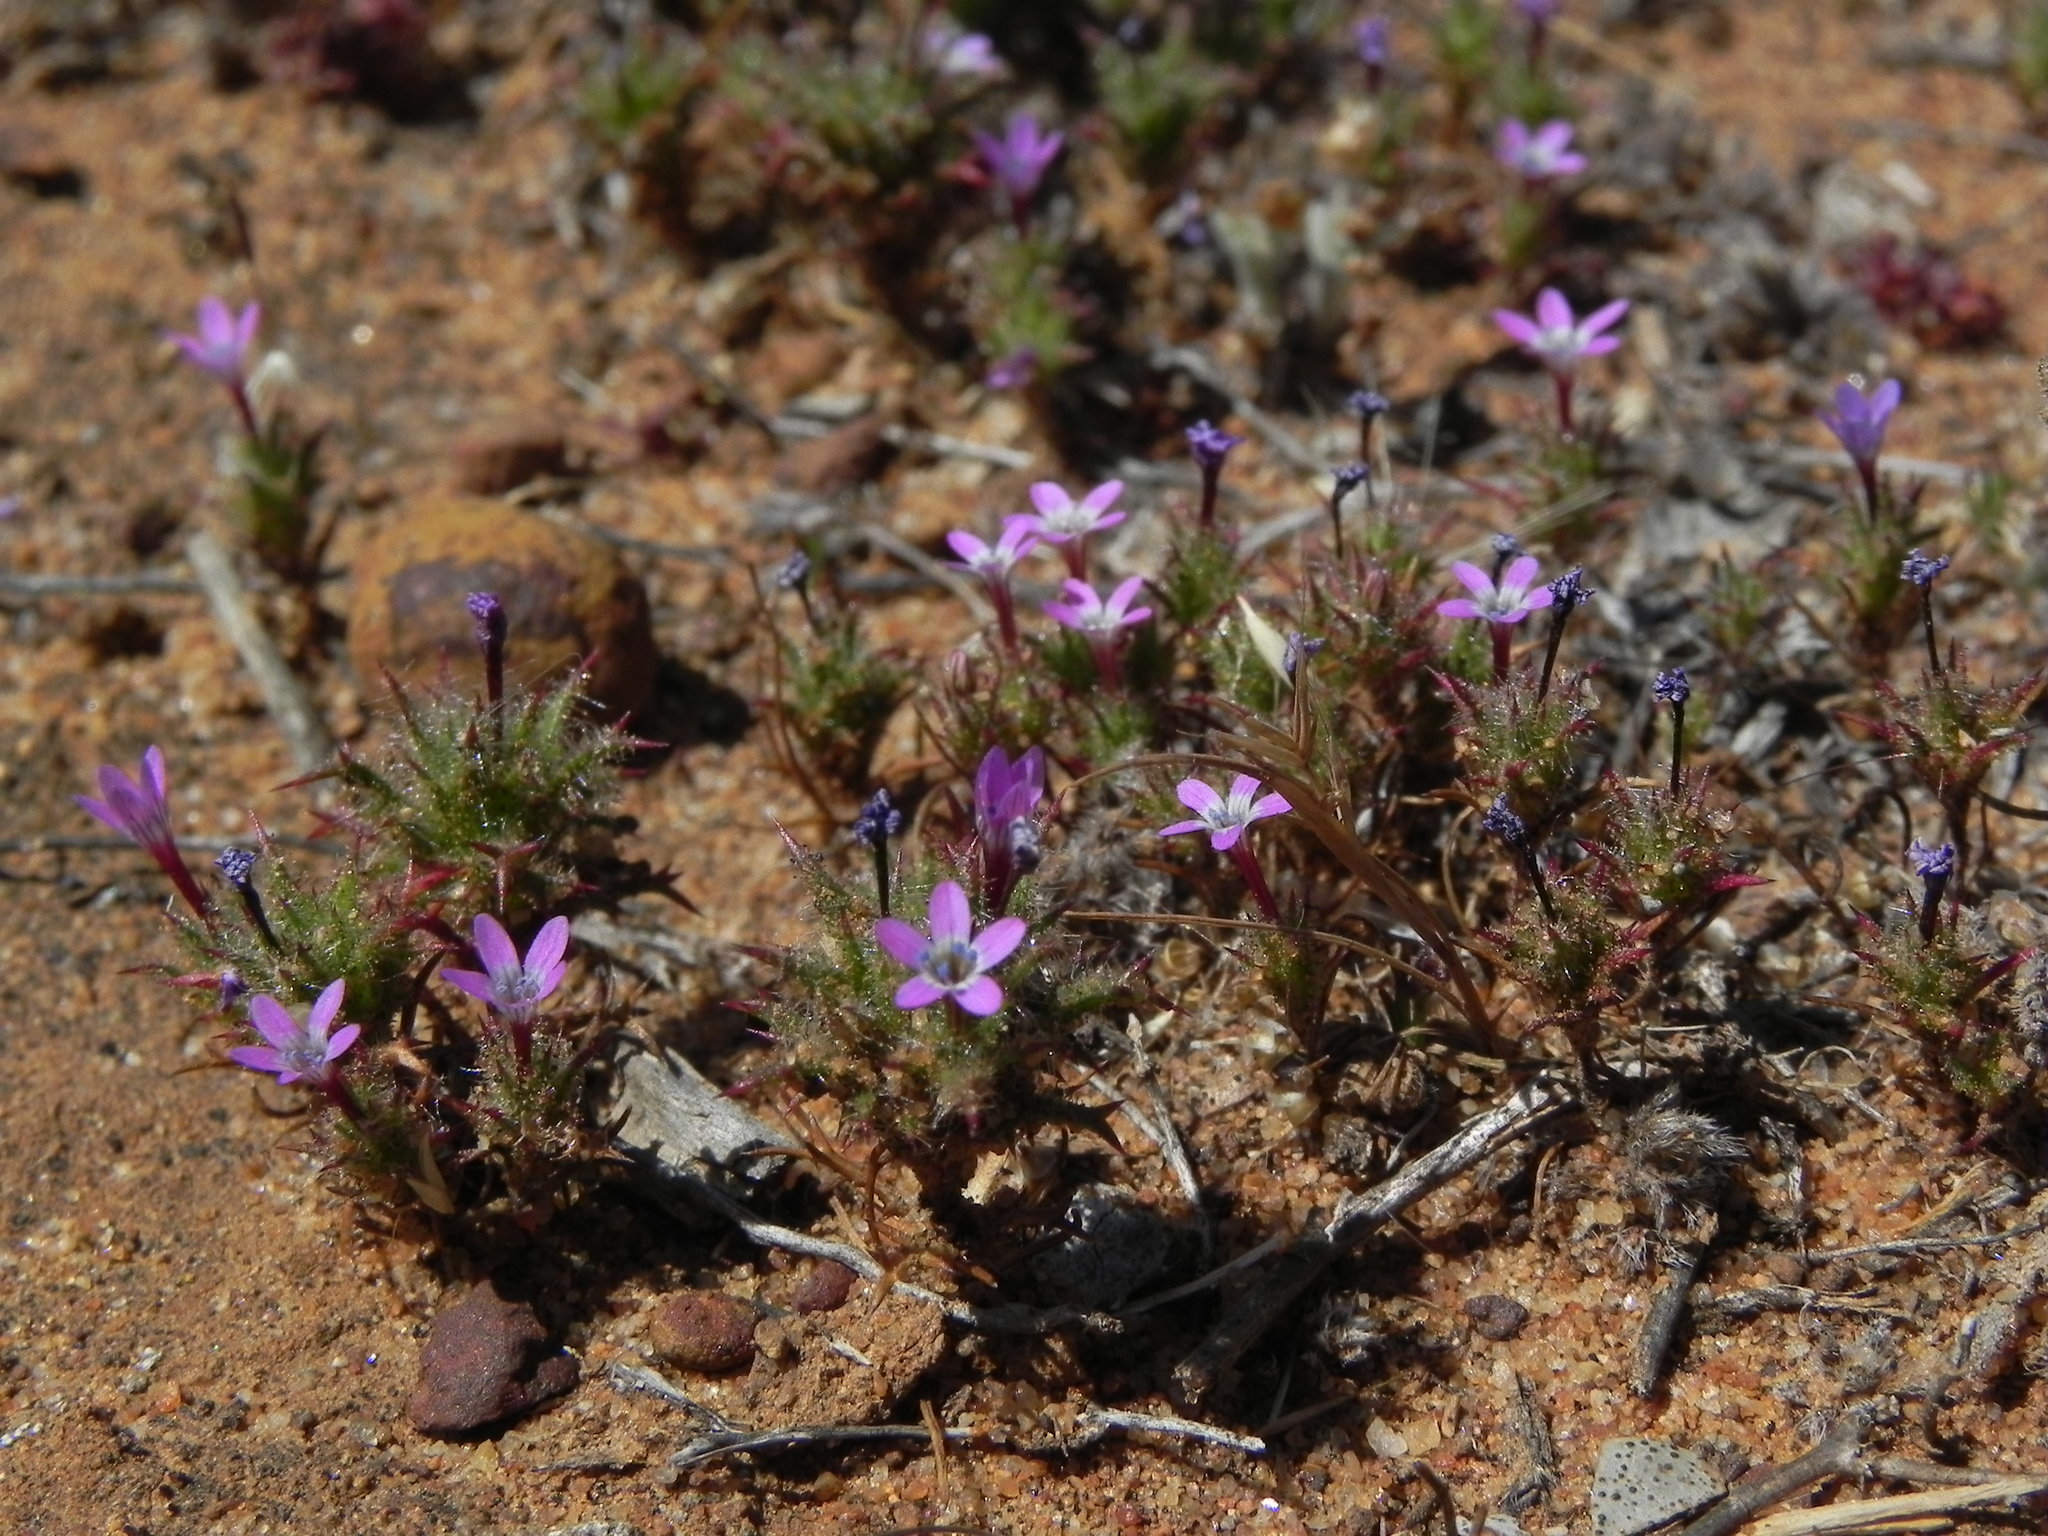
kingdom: Plantae
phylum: Tracheophyta
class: Magnoliopsida
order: Ericales
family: Polemoniaceae
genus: Navarretia
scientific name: Navarretia hamata
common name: Hooked navarretia
